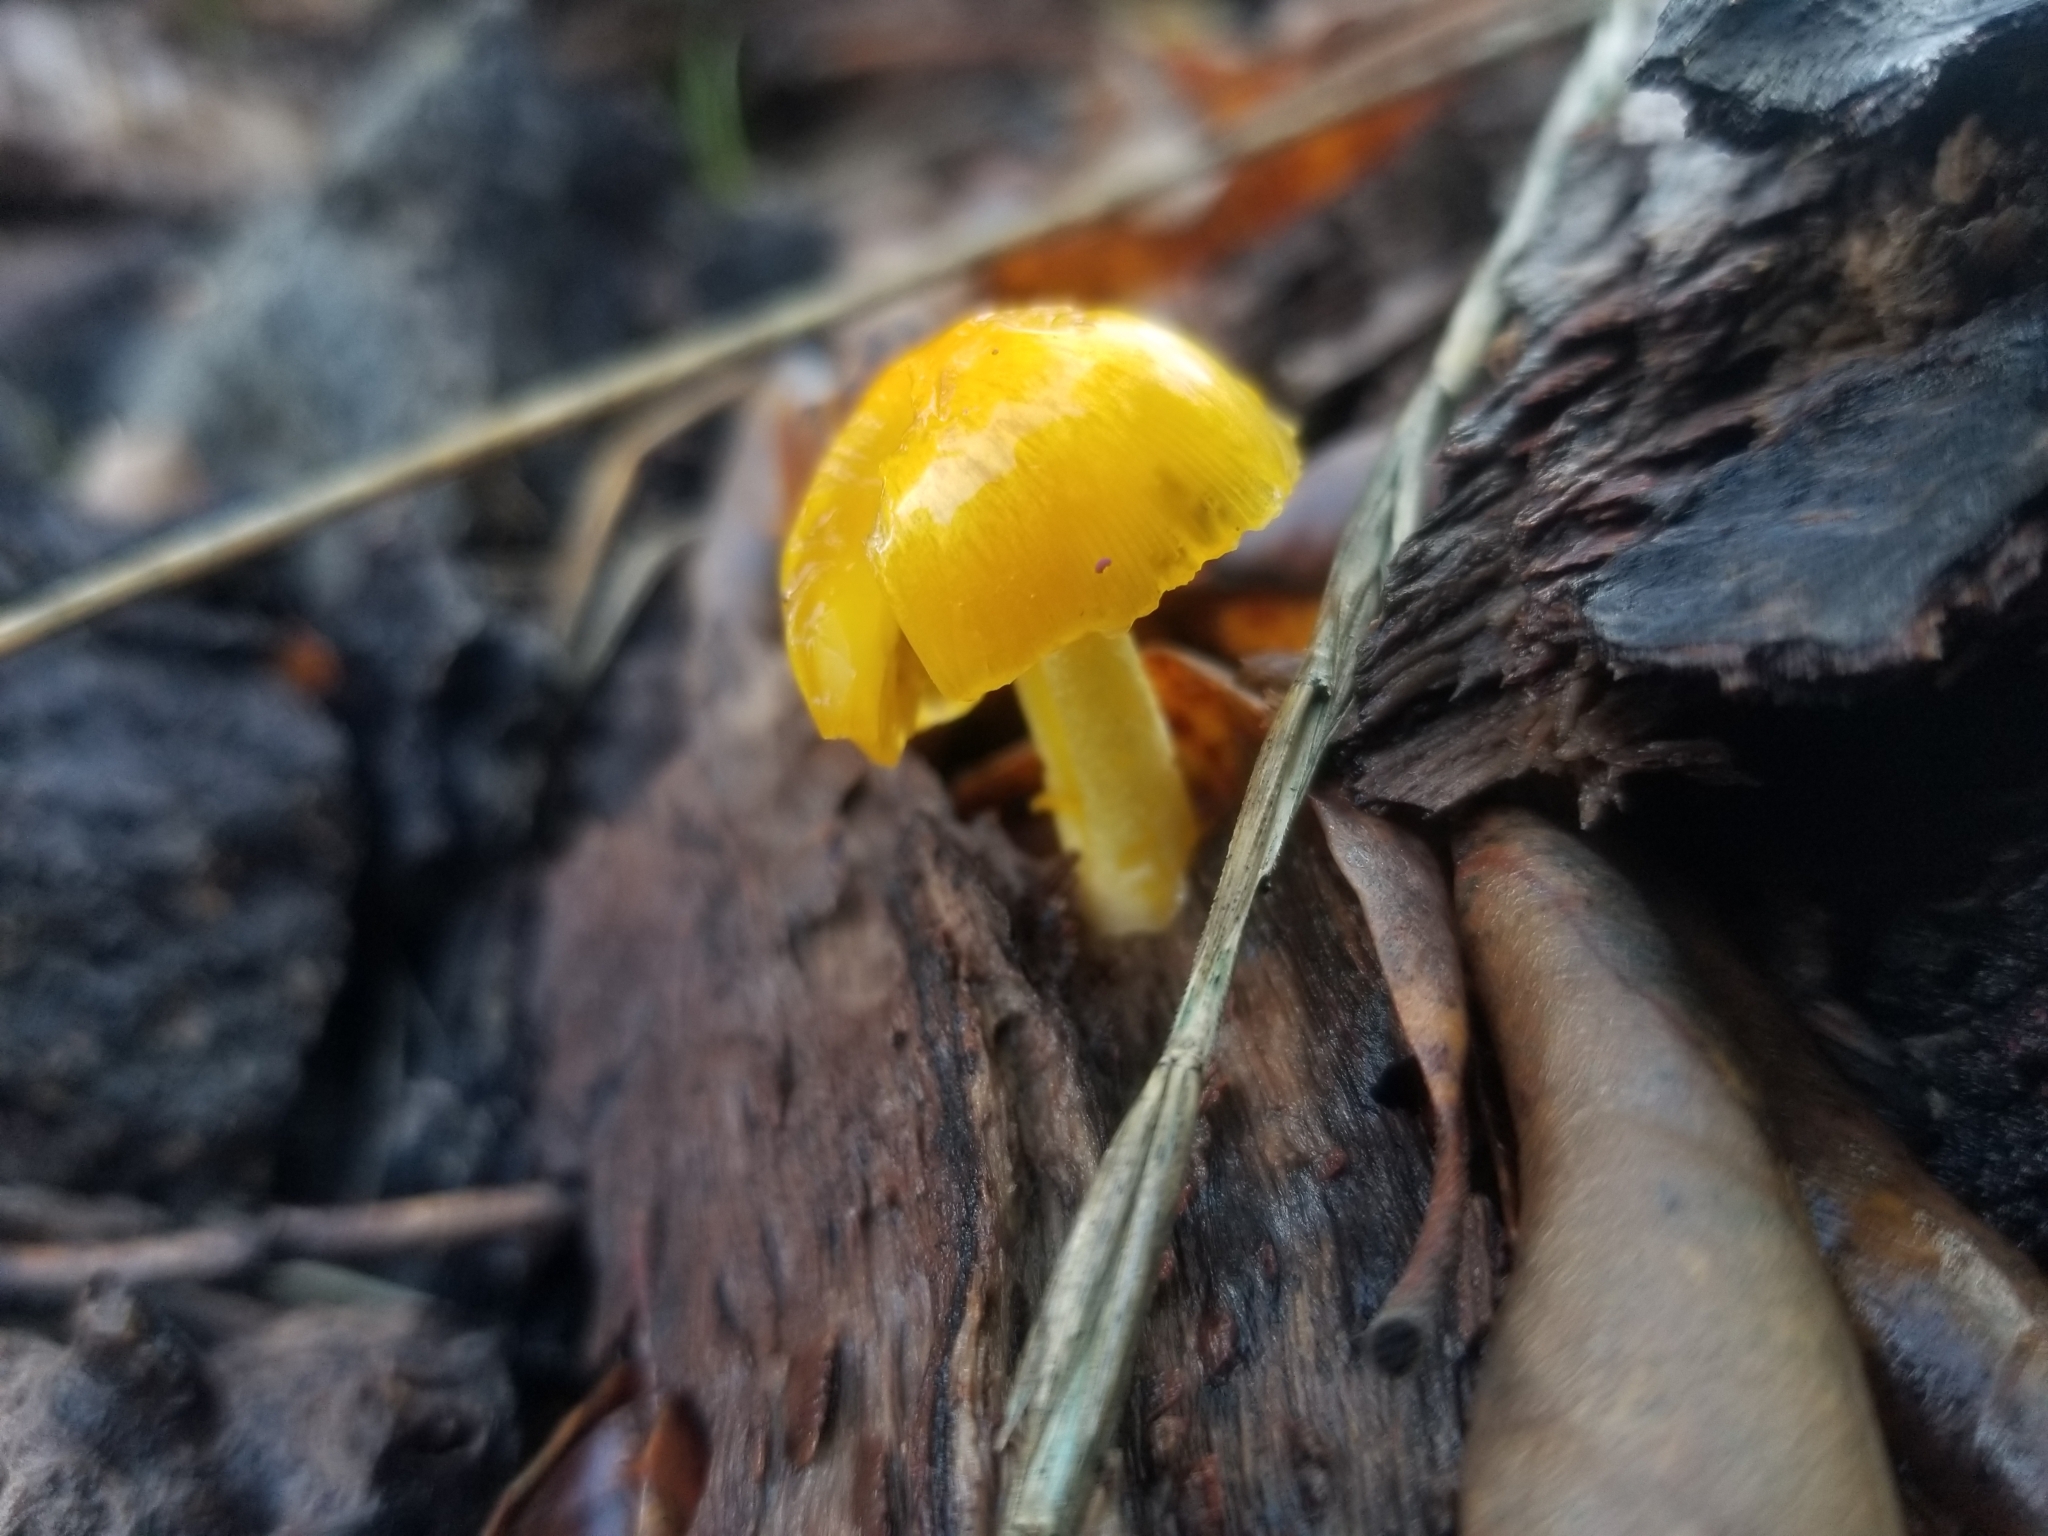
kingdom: Fungi
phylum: Basidiomycota
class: Agaricomycetes
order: Agaricales
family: Bolbitiaceae
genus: Bolbitius
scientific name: Bolbitius titubans
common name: Yellow fieldcap
